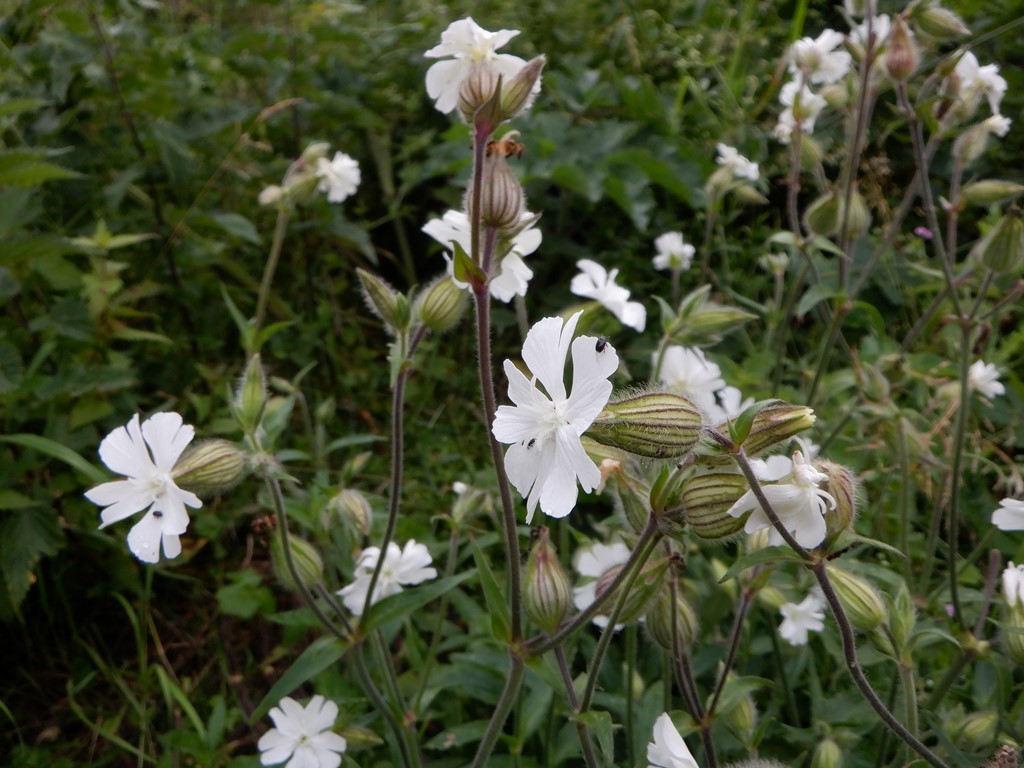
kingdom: Plantae
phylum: Tracheophyta
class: Magnoliopsida
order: Caryophyllales
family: Caryophyllaceae
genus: Silene
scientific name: Silene latifolia
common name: White campion
